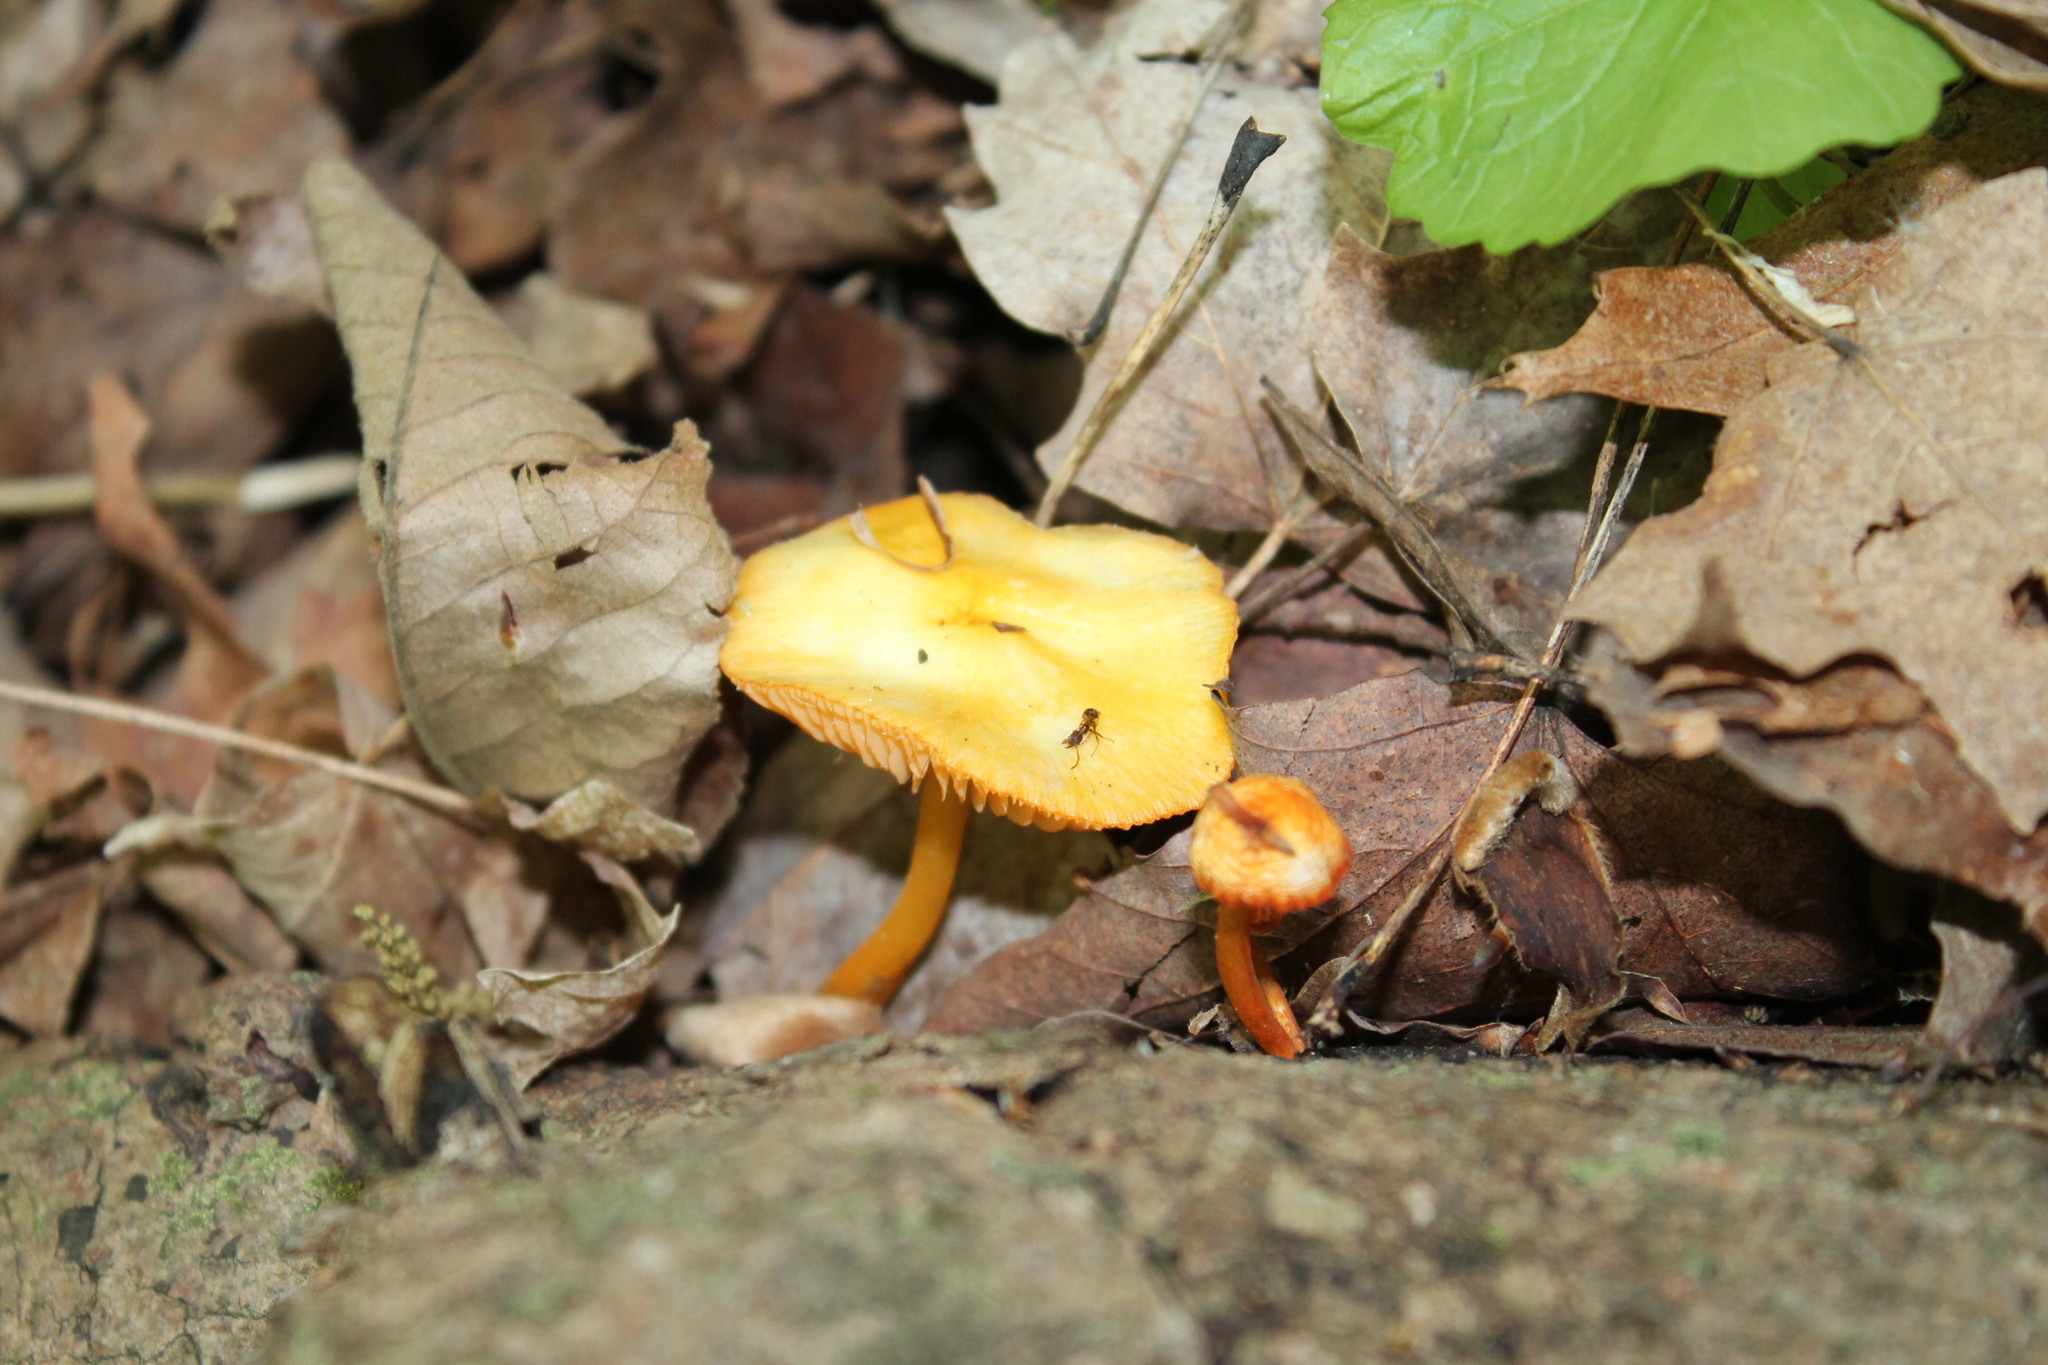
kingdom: Fungi
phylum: Basidiomycota
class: Agaricomycetes
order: Agaricales
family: Mycenaceae
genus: Mycena
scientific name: Mycena leaiana
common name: Orange mycena
